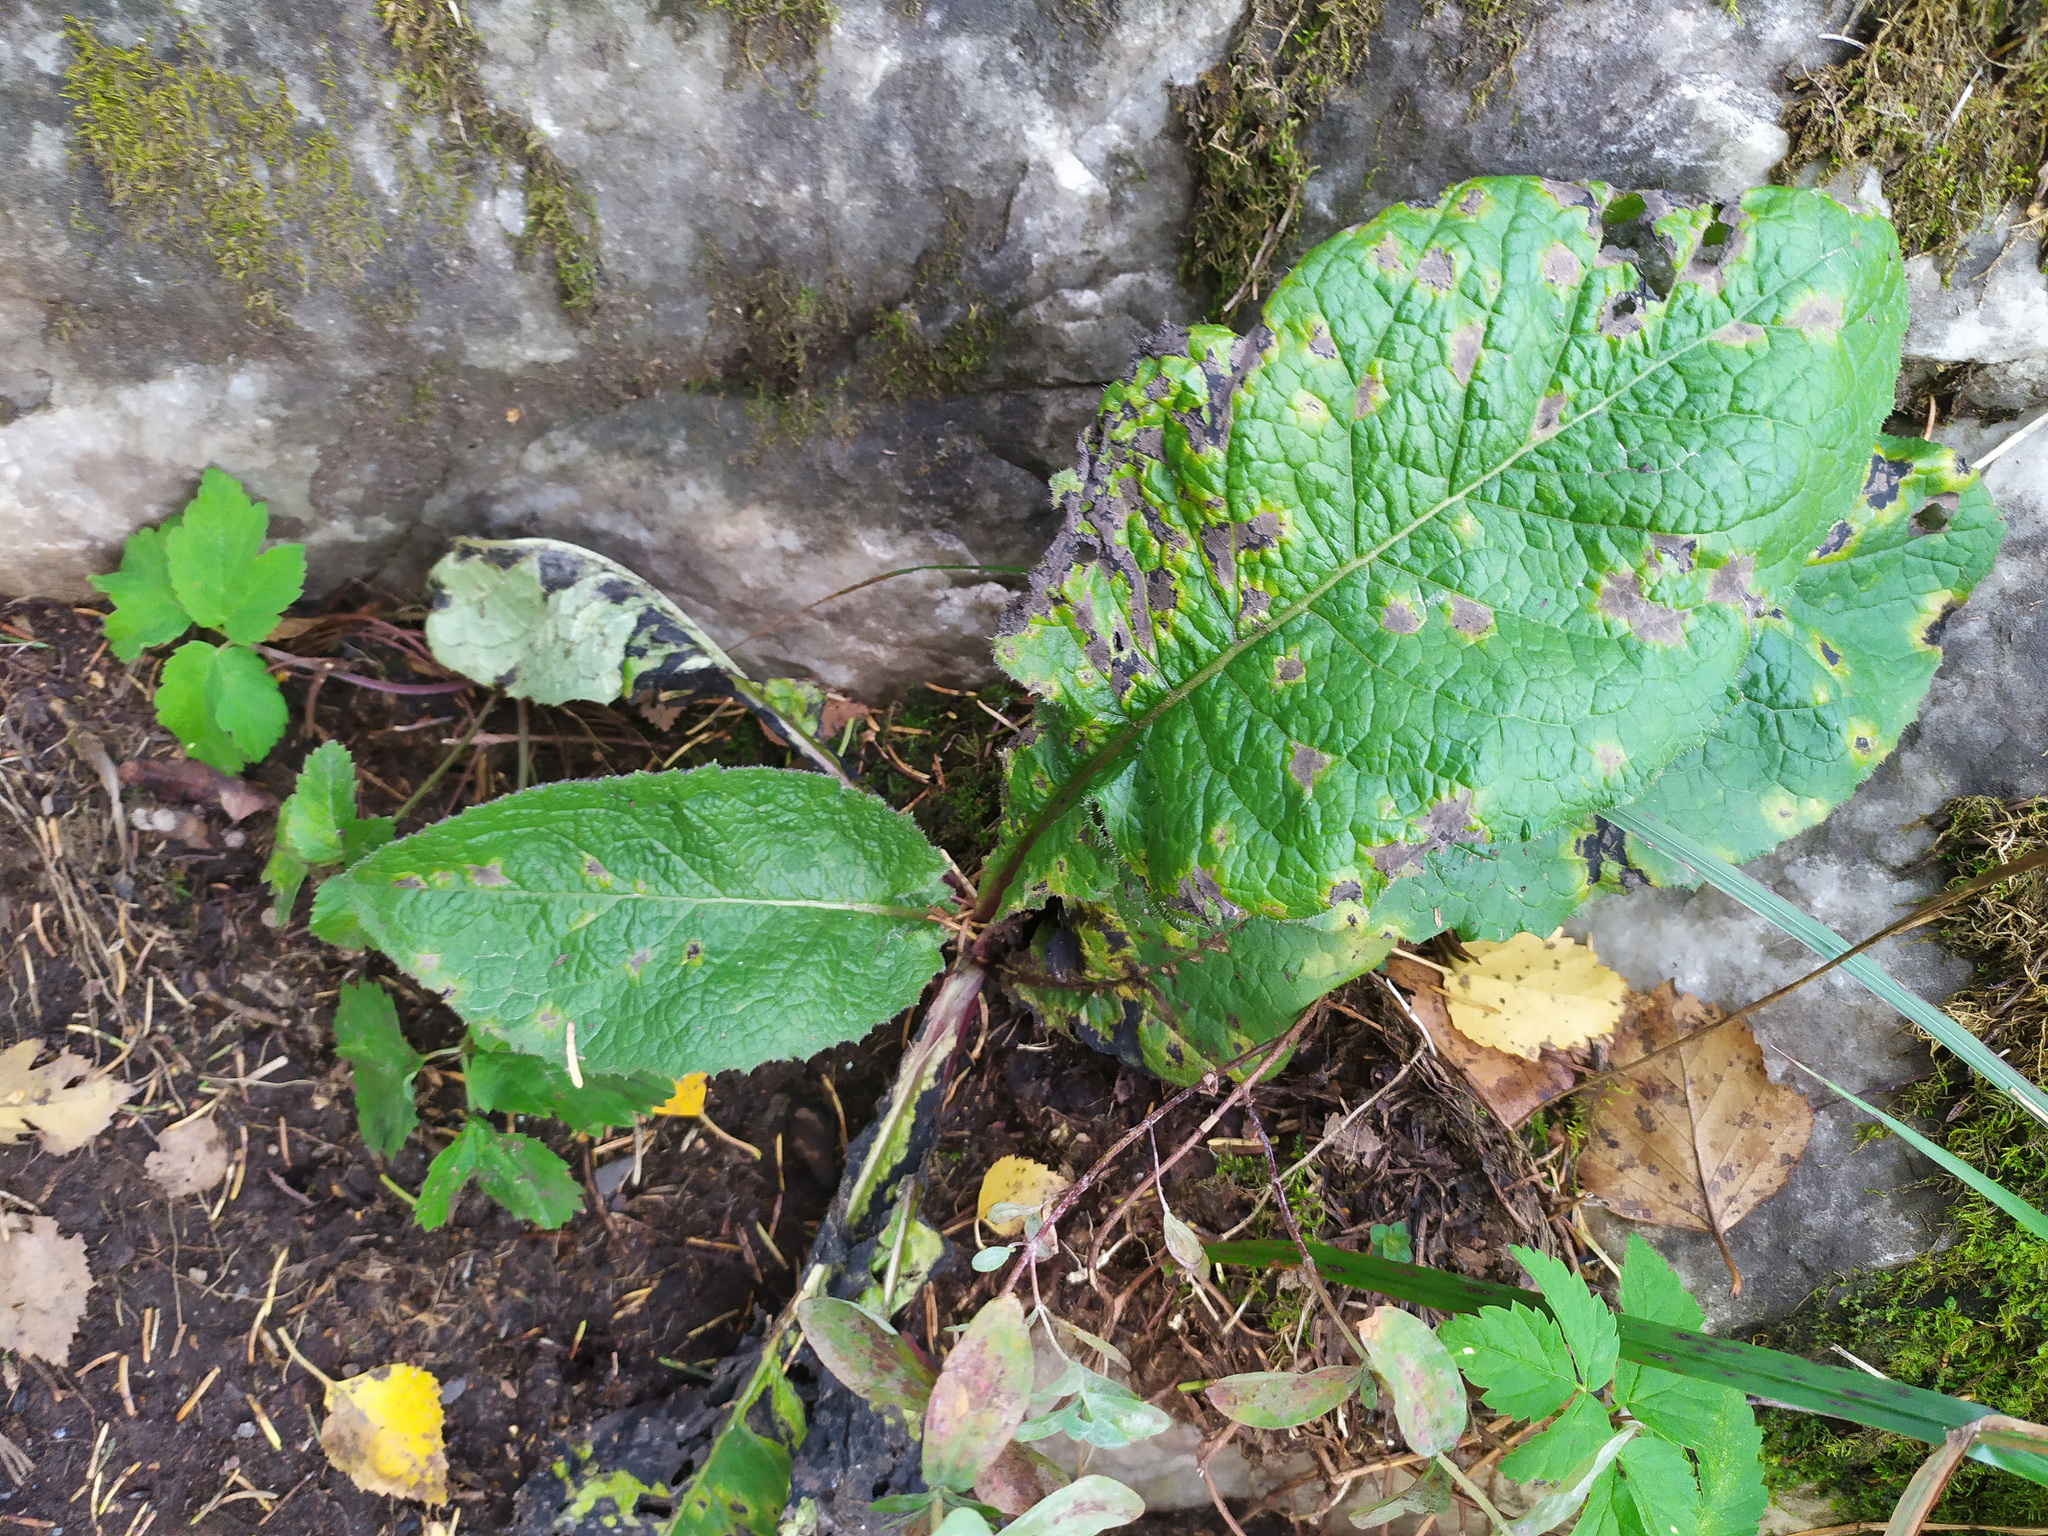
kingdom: Plantae
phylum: Tracheophyta
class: Magnoliopsida
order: Asterales
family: Asteraceae
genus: Lactuca
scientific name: Lactuca macrophylla
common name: Common blue-sow-thistle
